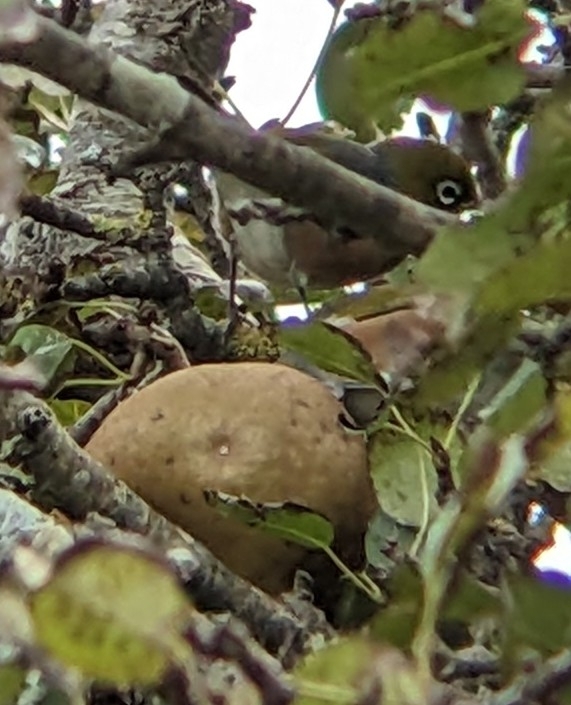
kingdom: Animalia
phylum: Chordata
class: Aves
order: Passeriformes
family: Zosteropidae
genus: Zosterops
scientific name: Zosterops lateralis
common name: Silvereye
